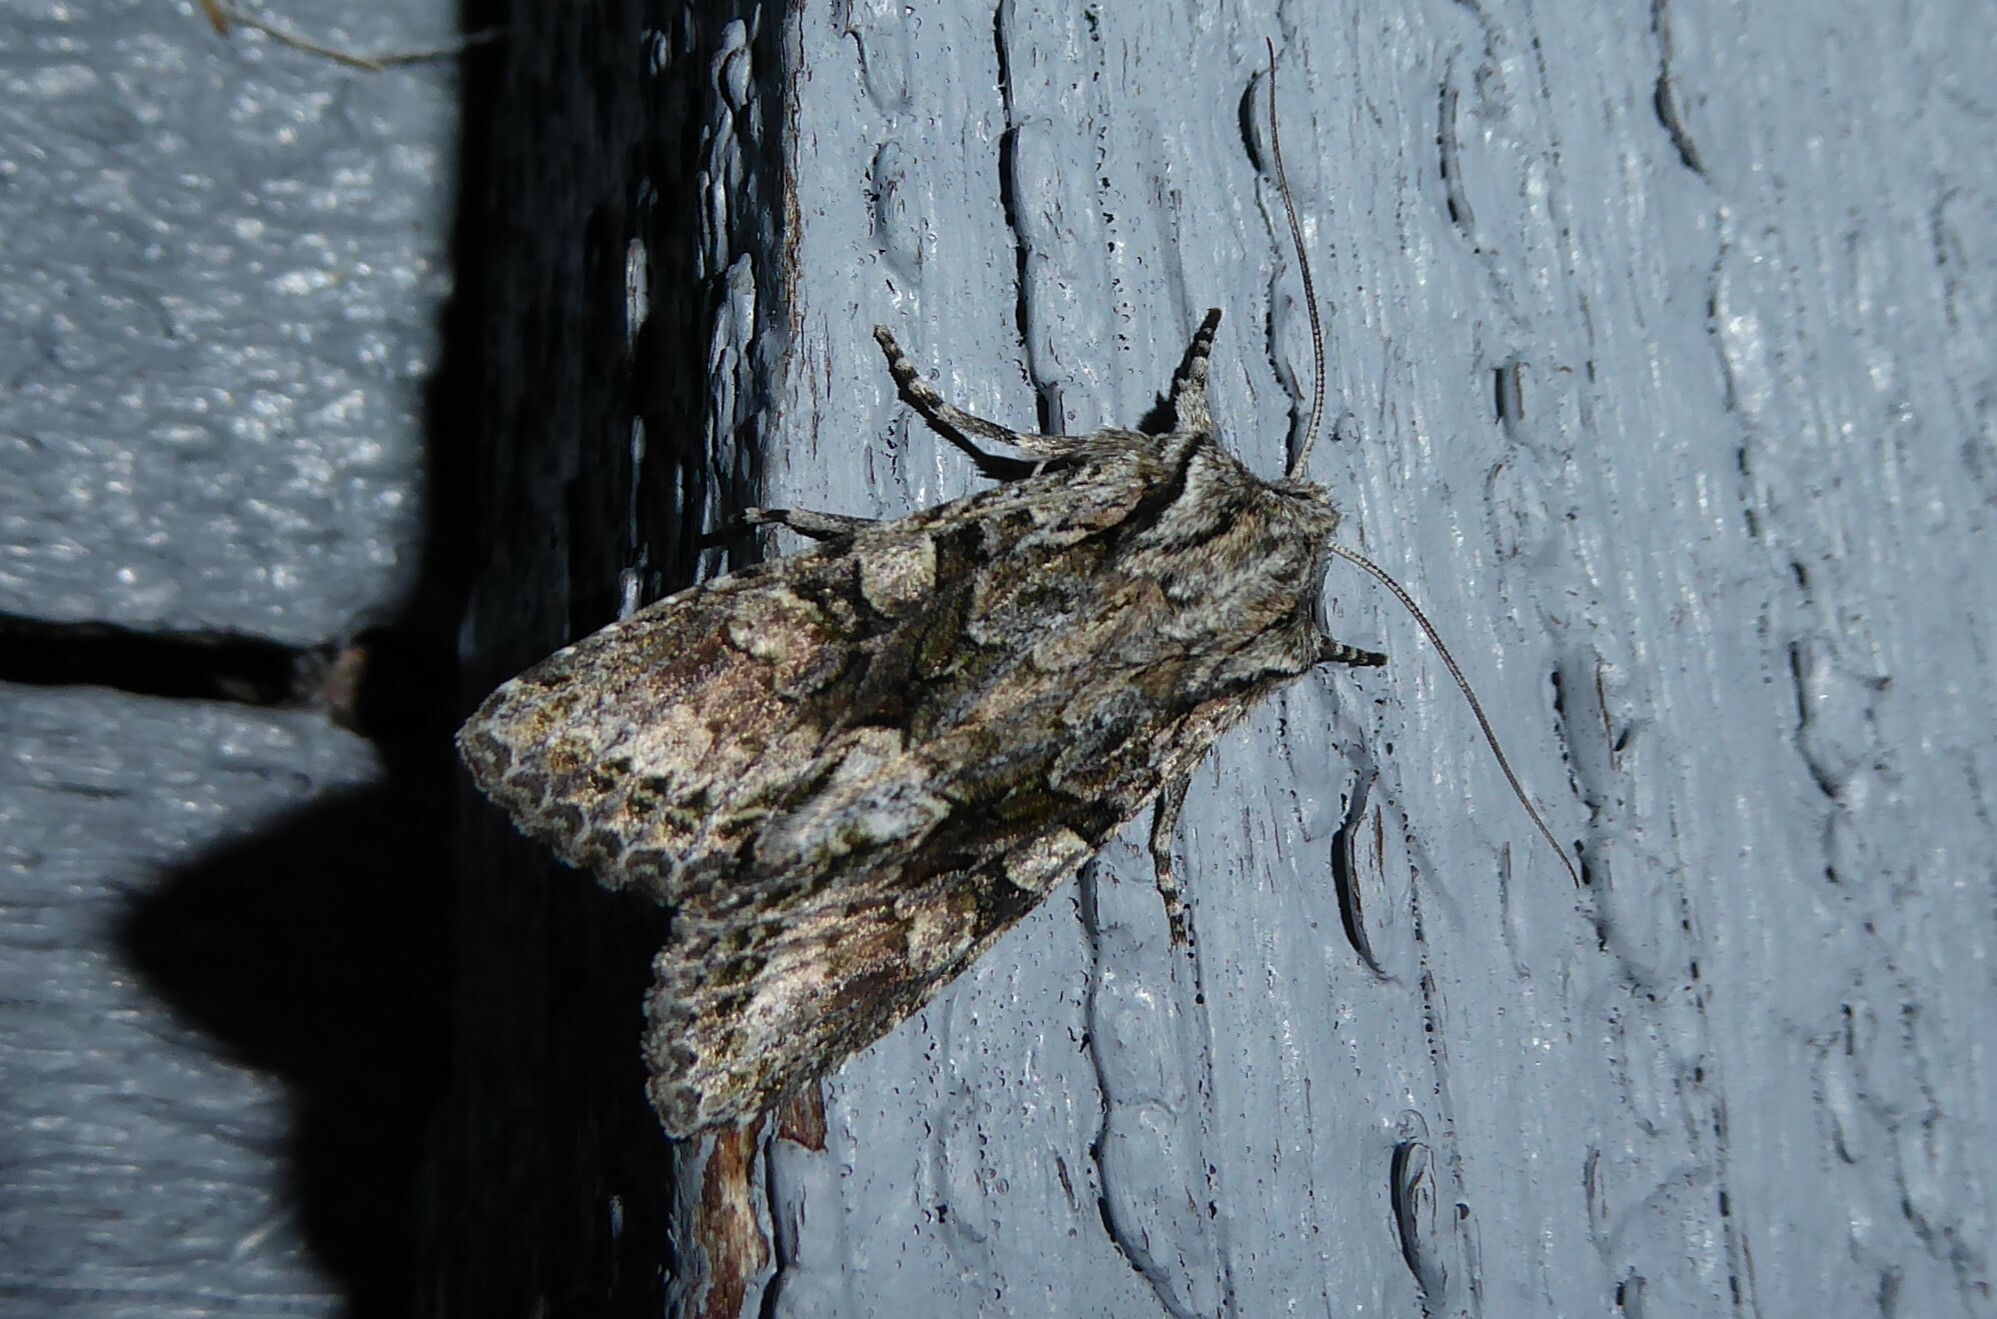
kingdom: Animalia
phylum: Arthropoda
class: Insecta
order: Lepidoptera
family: Noctuidae
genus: Ichneutica
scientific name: Ichneutica mutans
